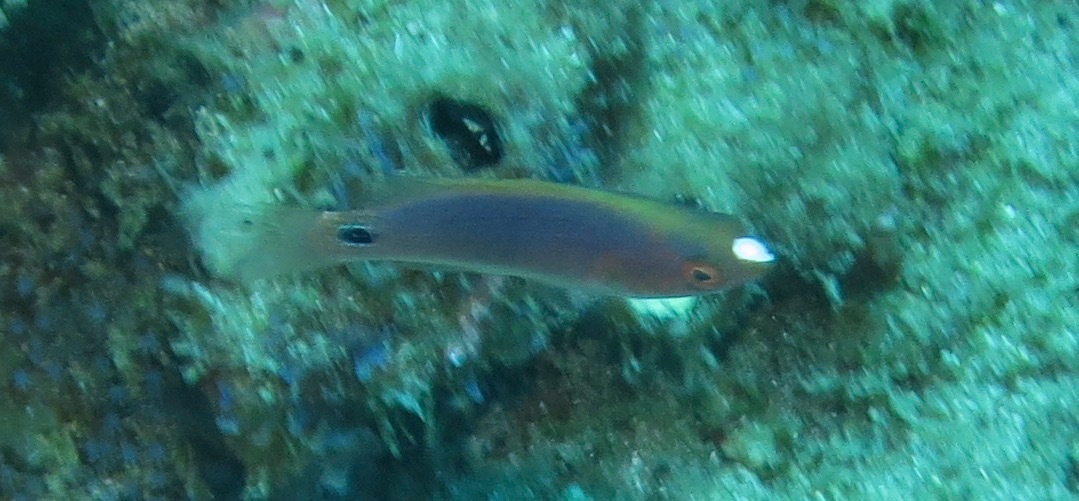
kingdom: Animalia
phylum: Chordata
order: Perciformes
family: Labridae
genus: Cirrhilabrus
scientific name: Cirrhilabrus exquisitus
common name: Exquisite wrasse
